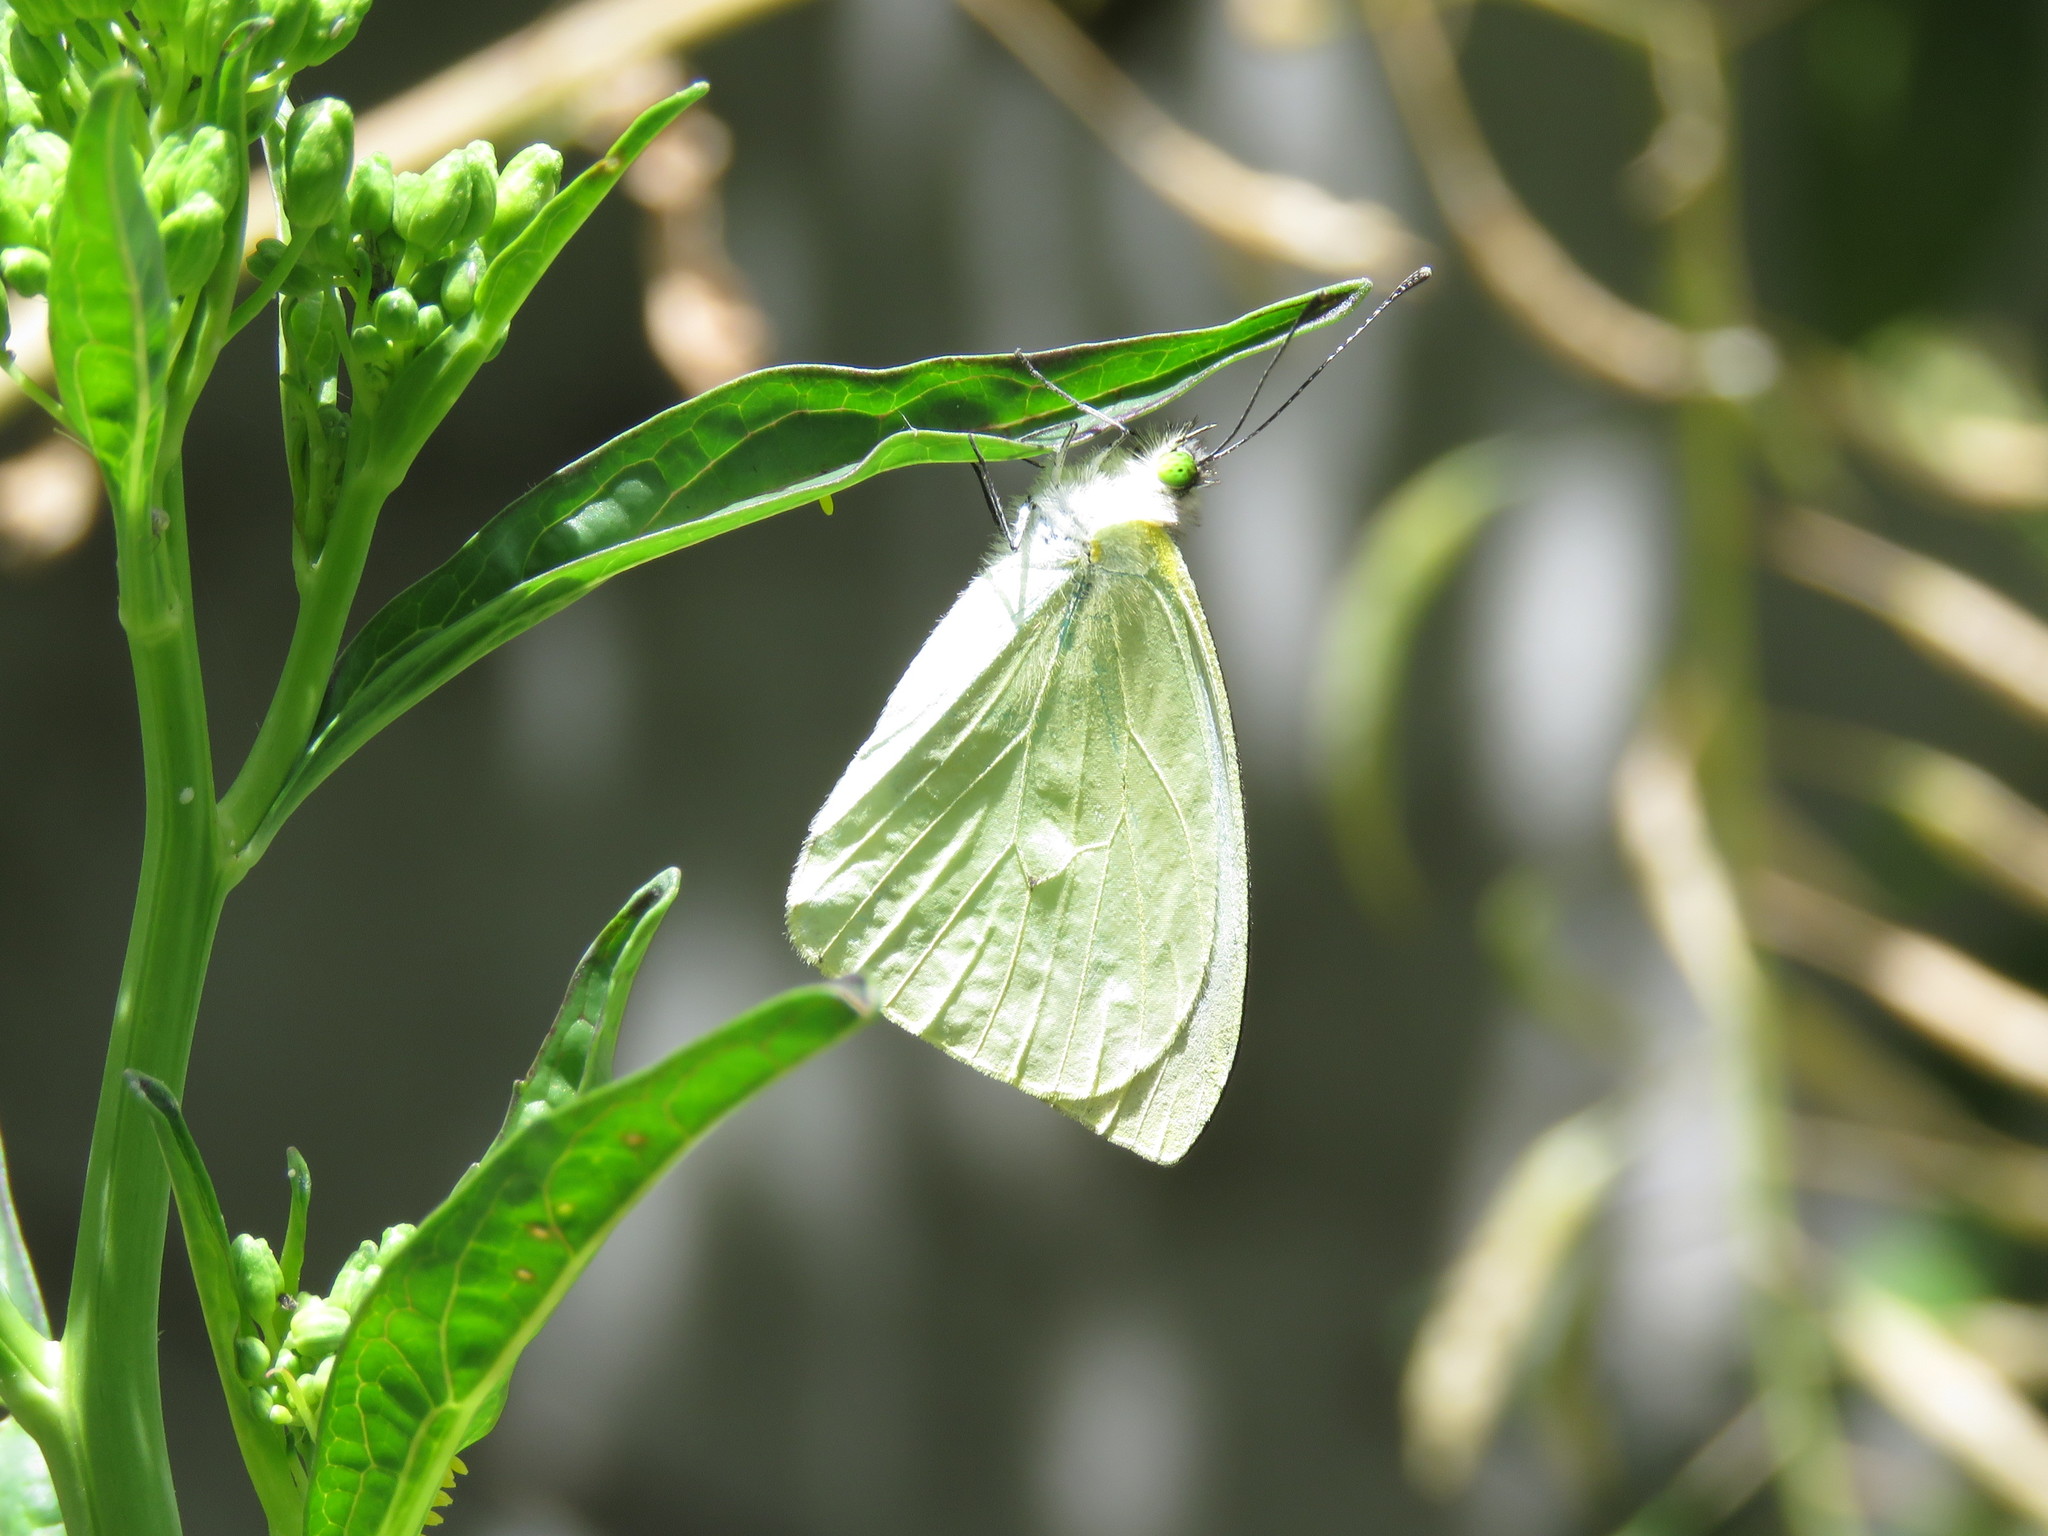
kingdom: Animalia
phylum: Arthropoda
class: Insecta
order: Lepidoptera
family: Pieridae
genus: Leptophobia
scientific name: Leptophobia aripa
